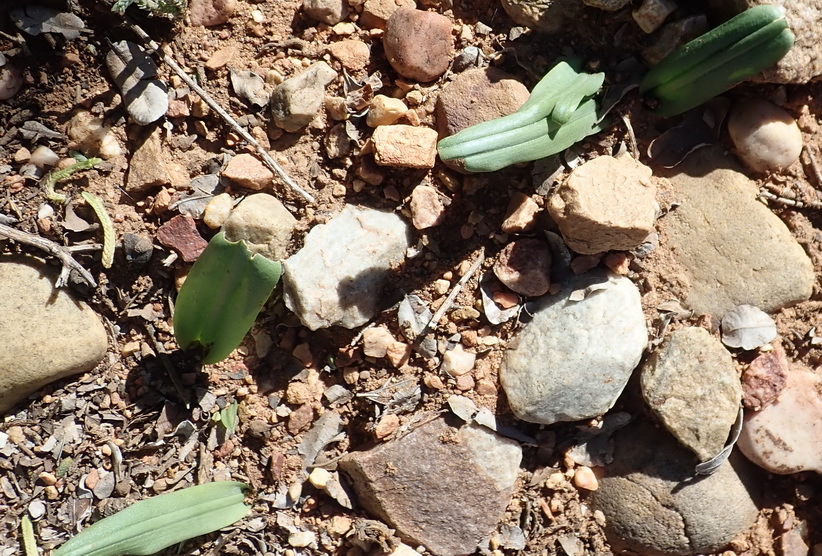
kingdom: Plantae
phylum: Tracheophyta
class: Liliopsida
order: Asparagales
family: Asparagaceae
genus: Drimia
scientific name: Drimia karooica
